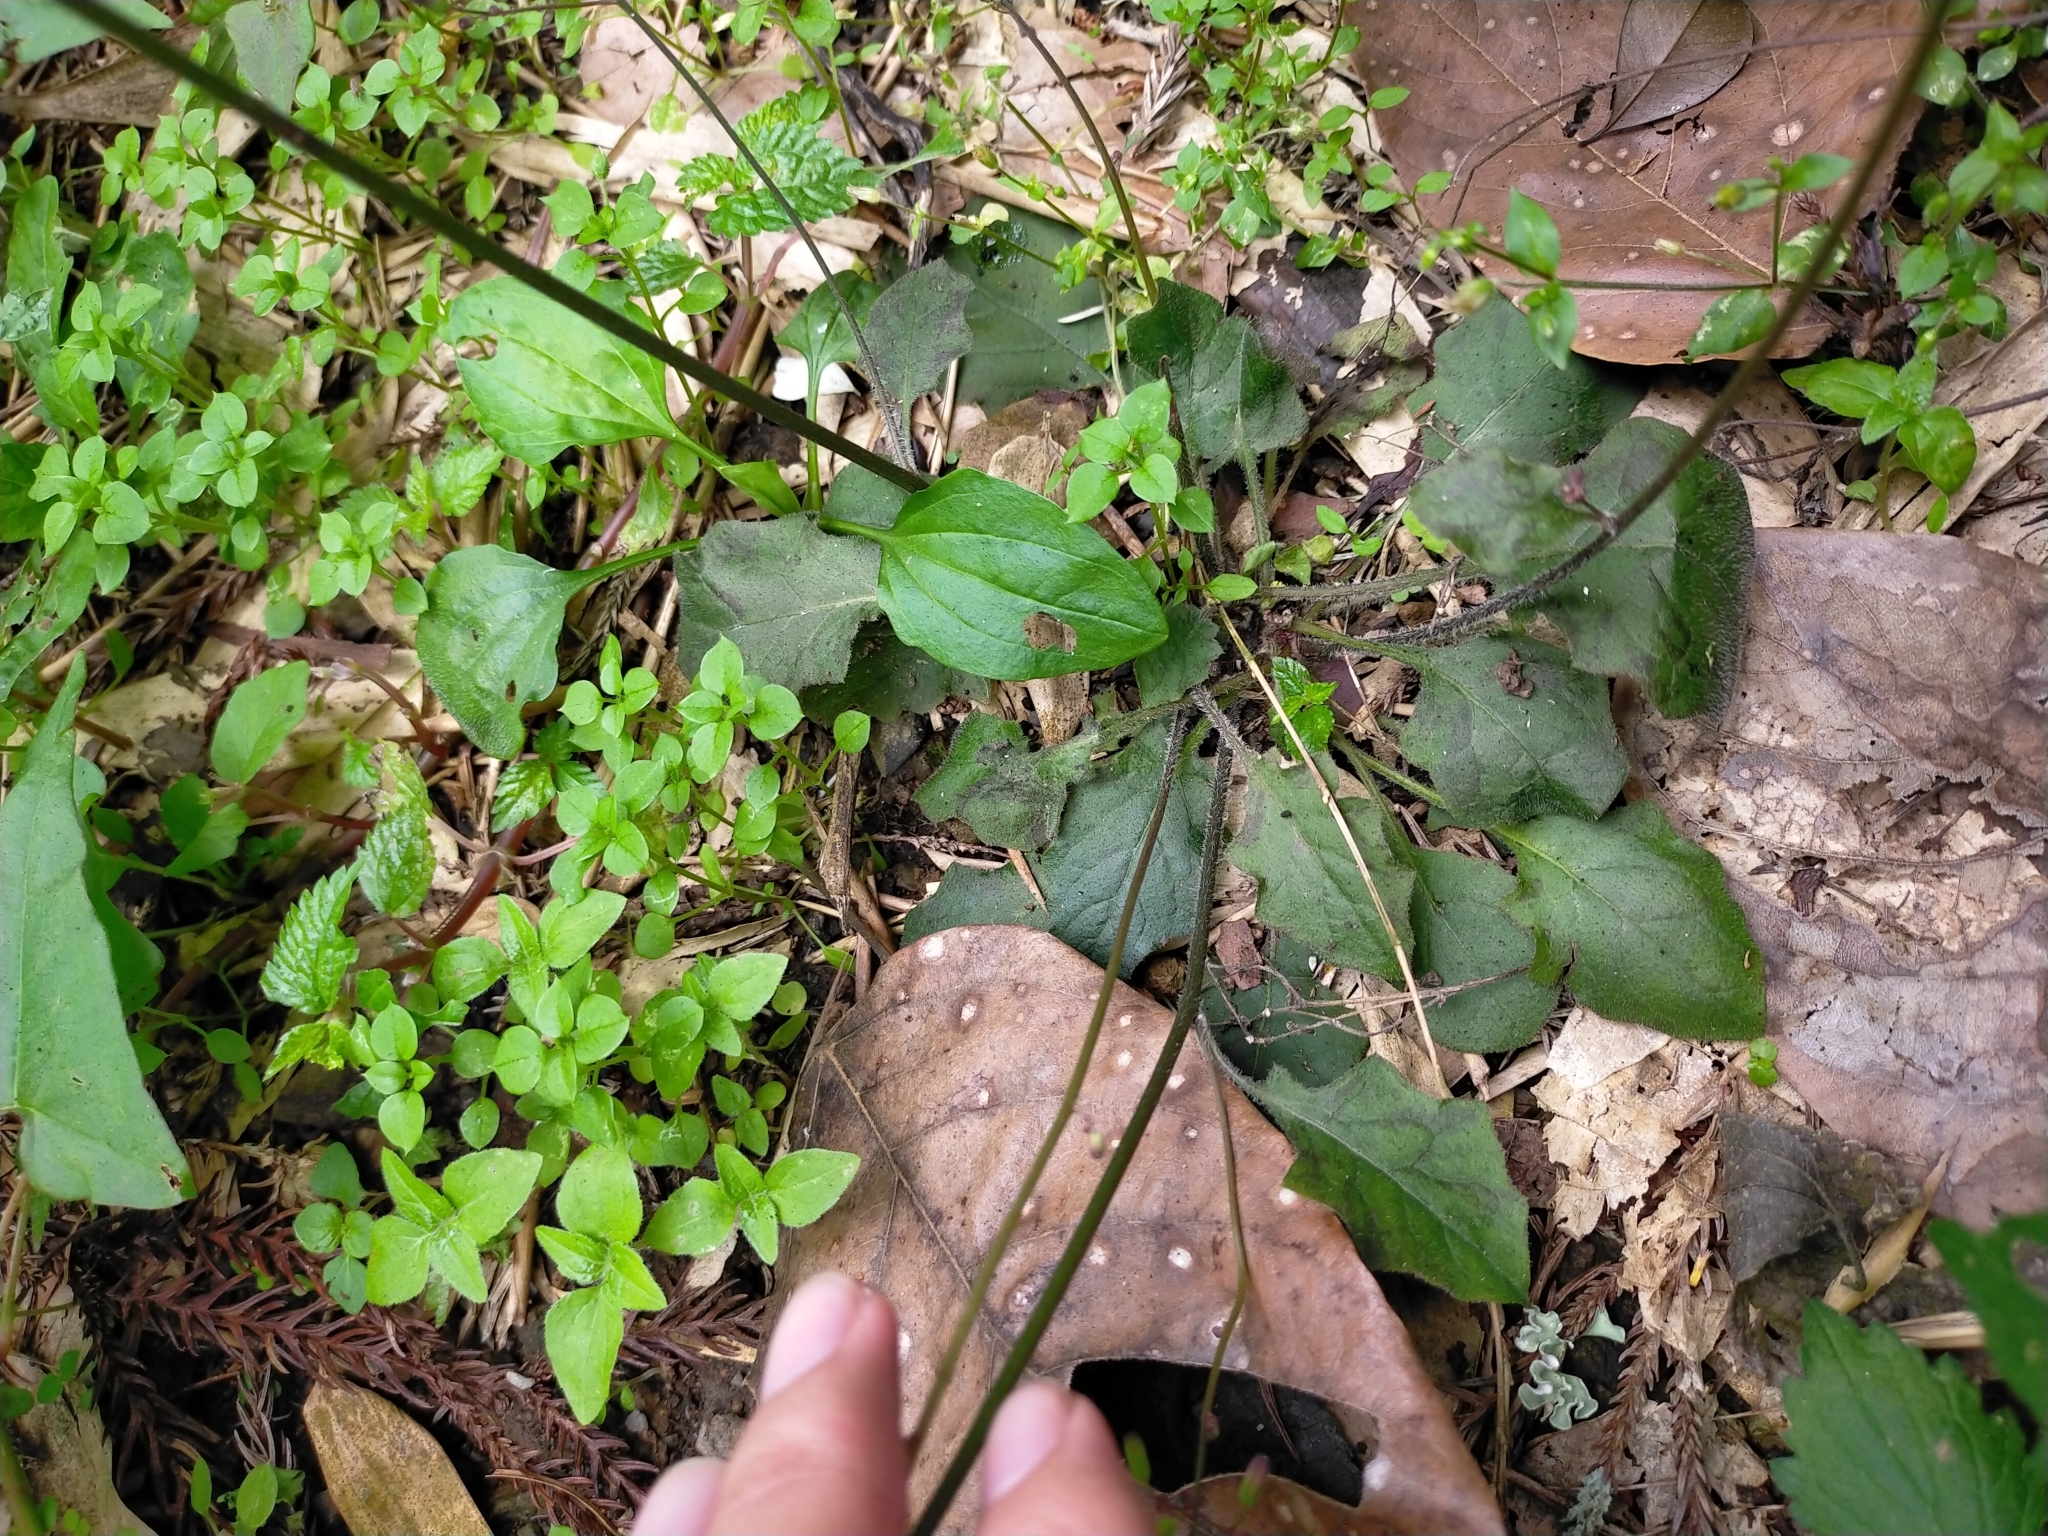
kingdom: Plantae
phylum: Tracheophyta
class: Magnoliopsida
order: Asterales
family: Asteraceae
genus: Youngia
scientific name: Youngia japonica
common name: Oriental false hawksbeard
